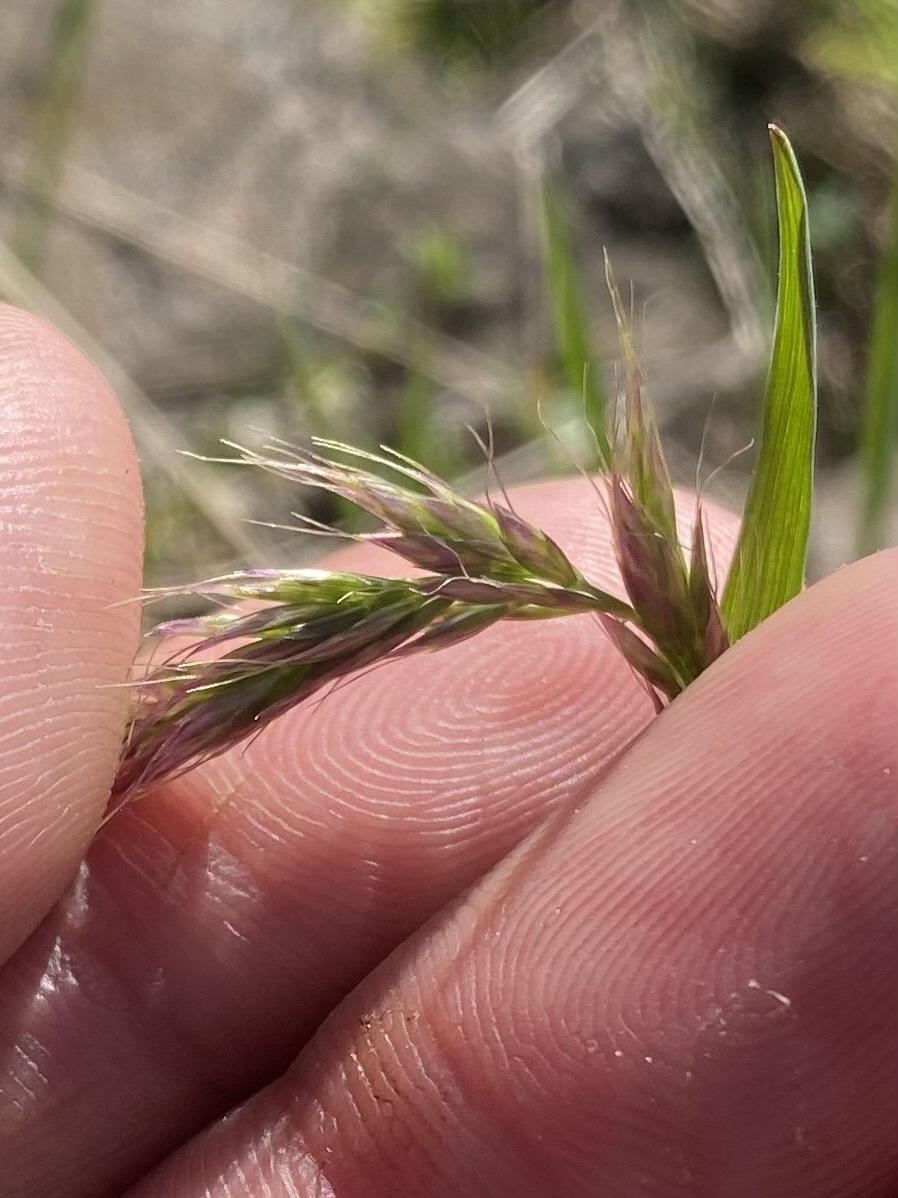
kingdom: Plantae
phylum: Tracheophyta
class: Liliopsida
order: Poales
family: Poaceae
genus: Koeleria
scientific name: Koeleria spicata
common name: Mountain trisetum
